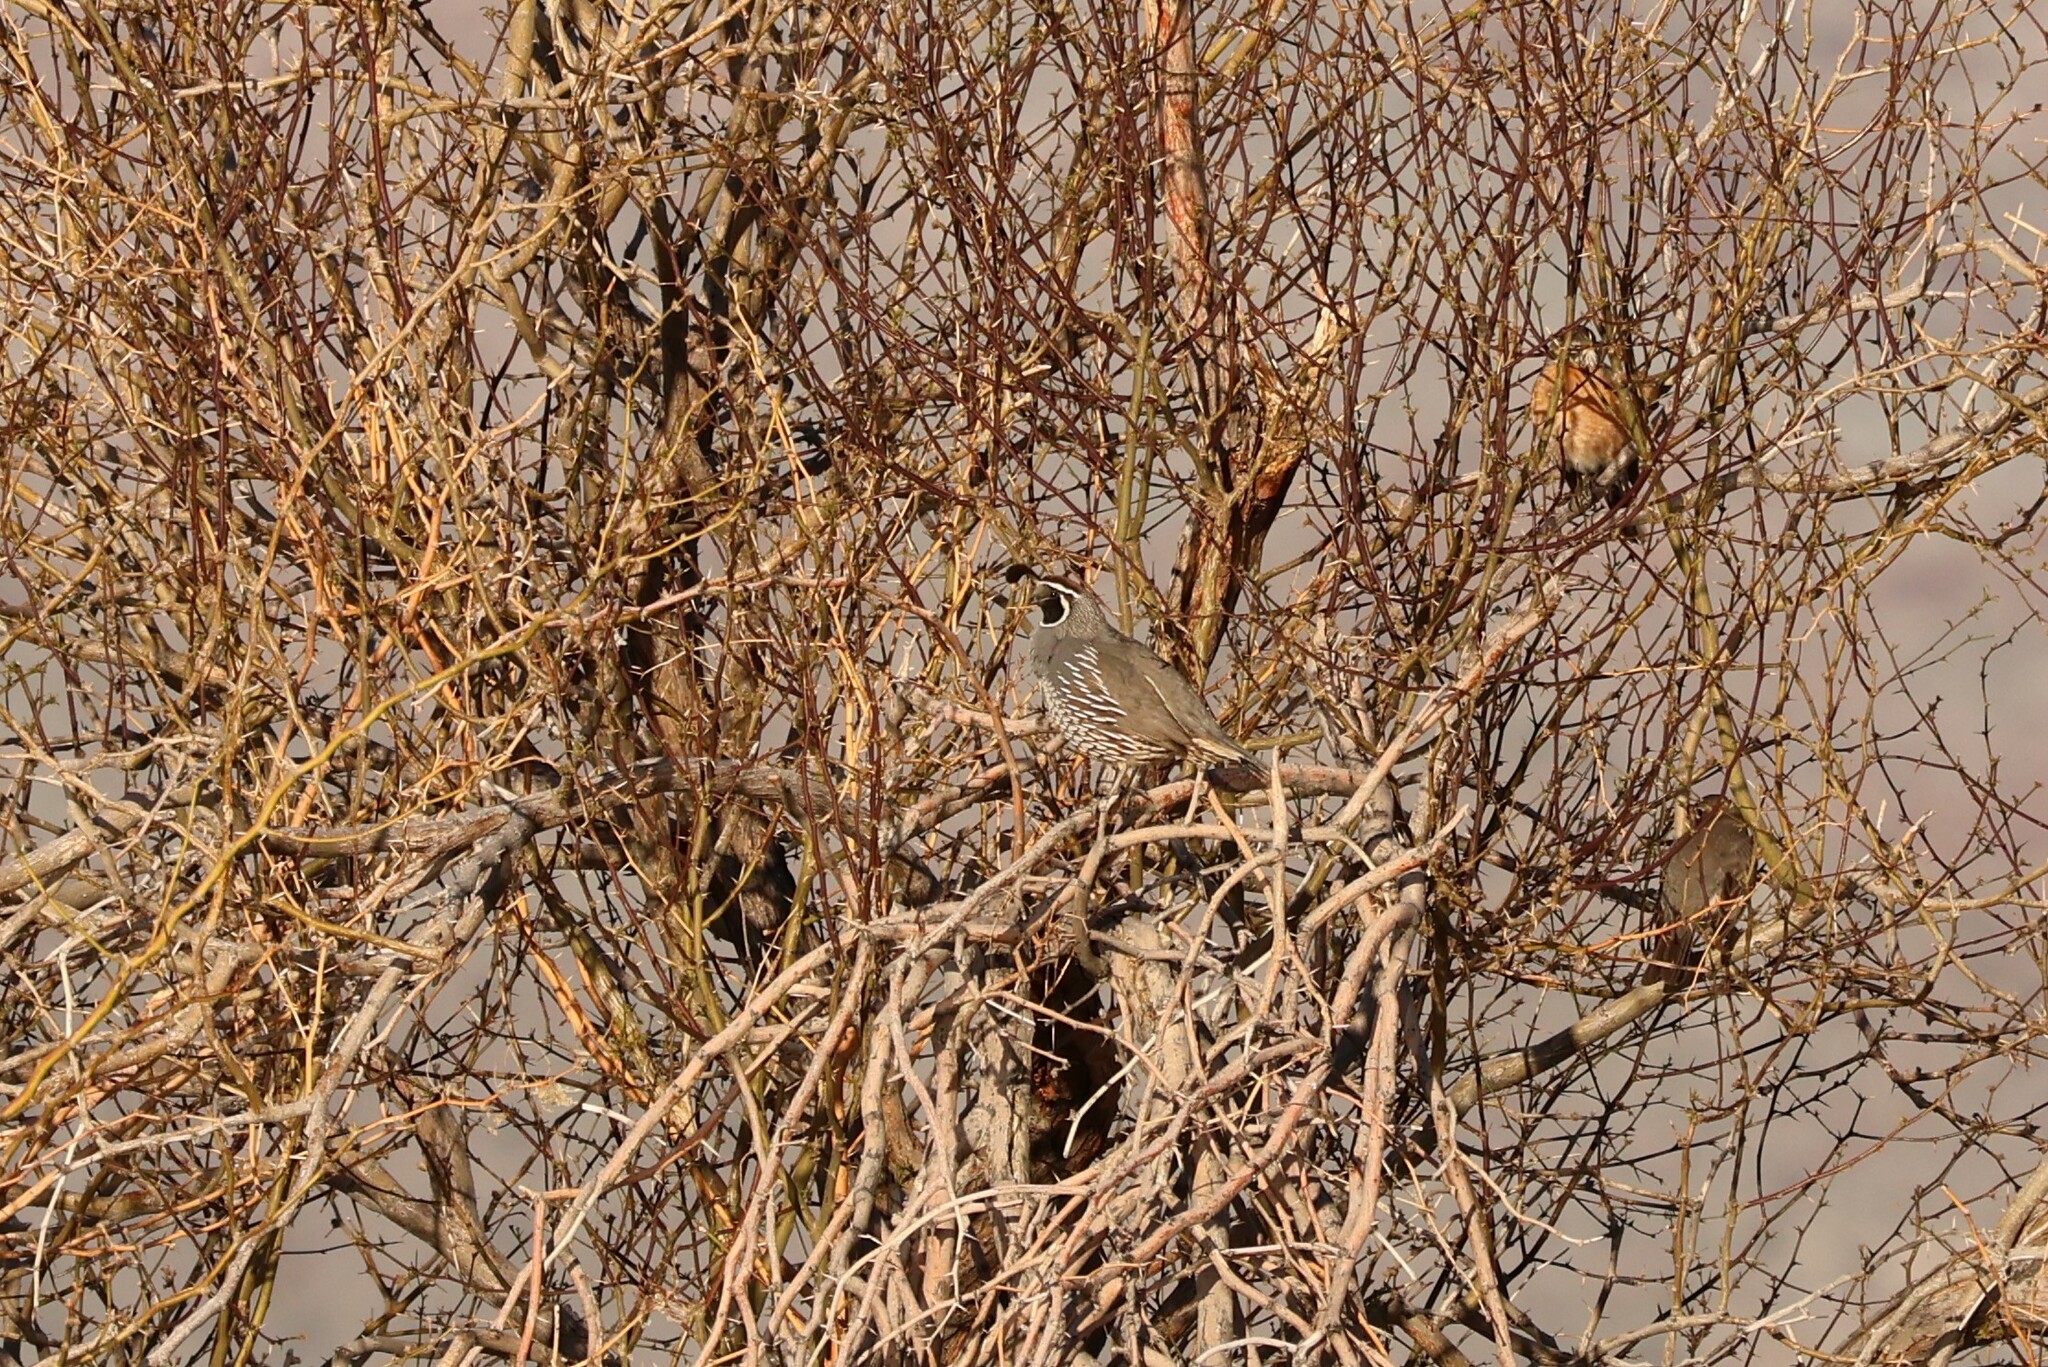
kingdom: Animalia
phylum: Chordata
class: Aves
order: Galliformes
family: Odontophoridae
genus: Callipepla
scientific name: Callipepla californica
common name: California quail
